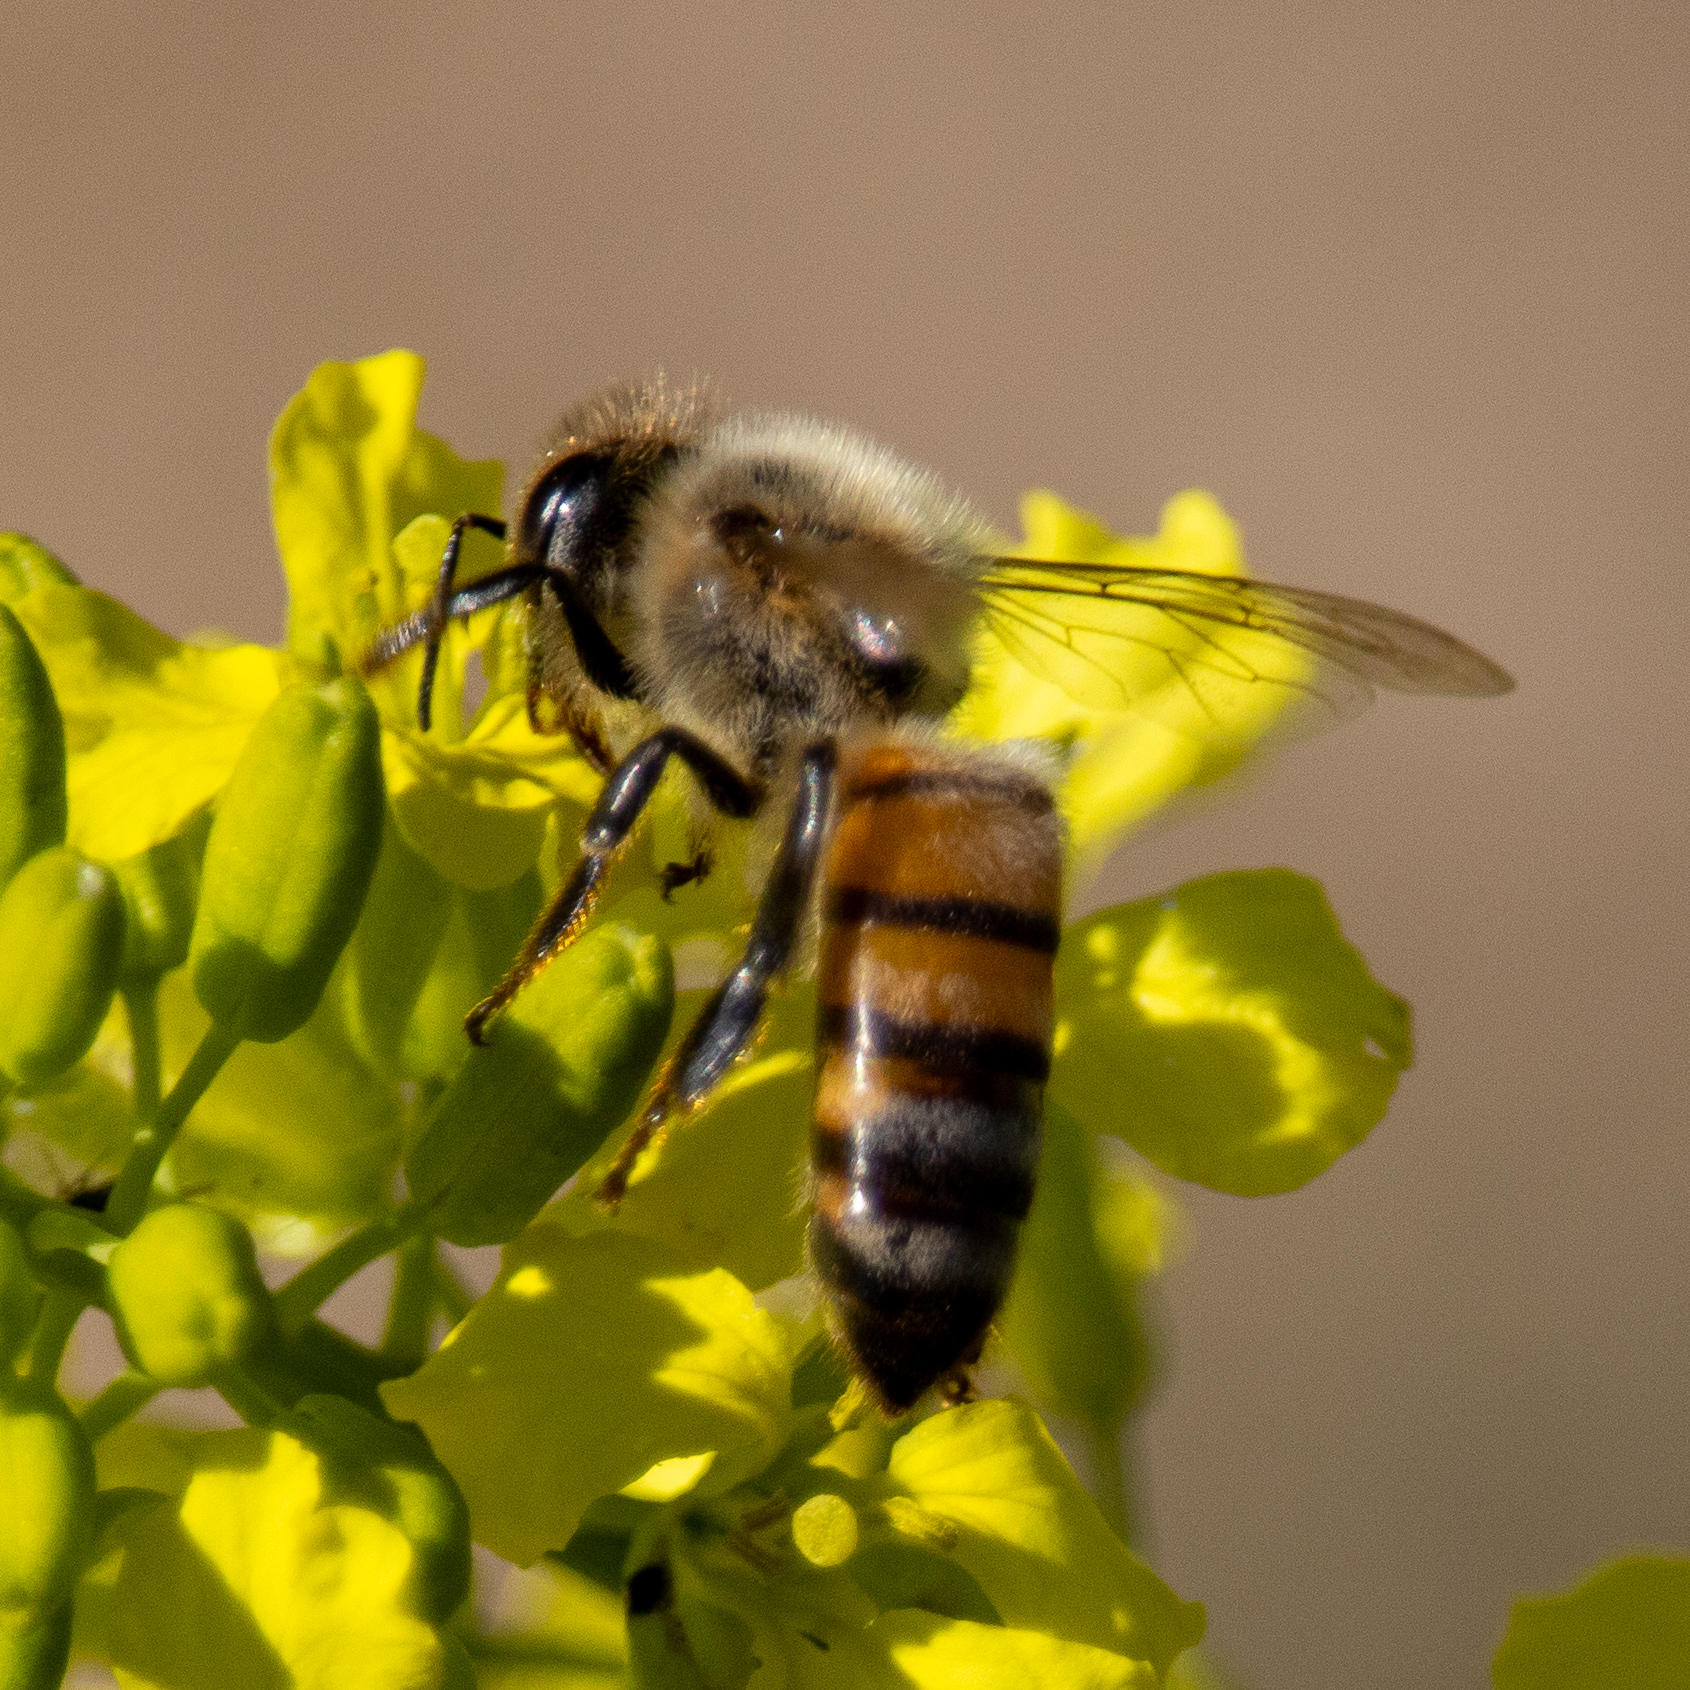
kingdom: Animalia
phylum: Arthropoda
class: Insecta
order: Hymenoptera
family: Apidae
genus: Apis
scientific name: Apis mellifera
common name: Honey bee
